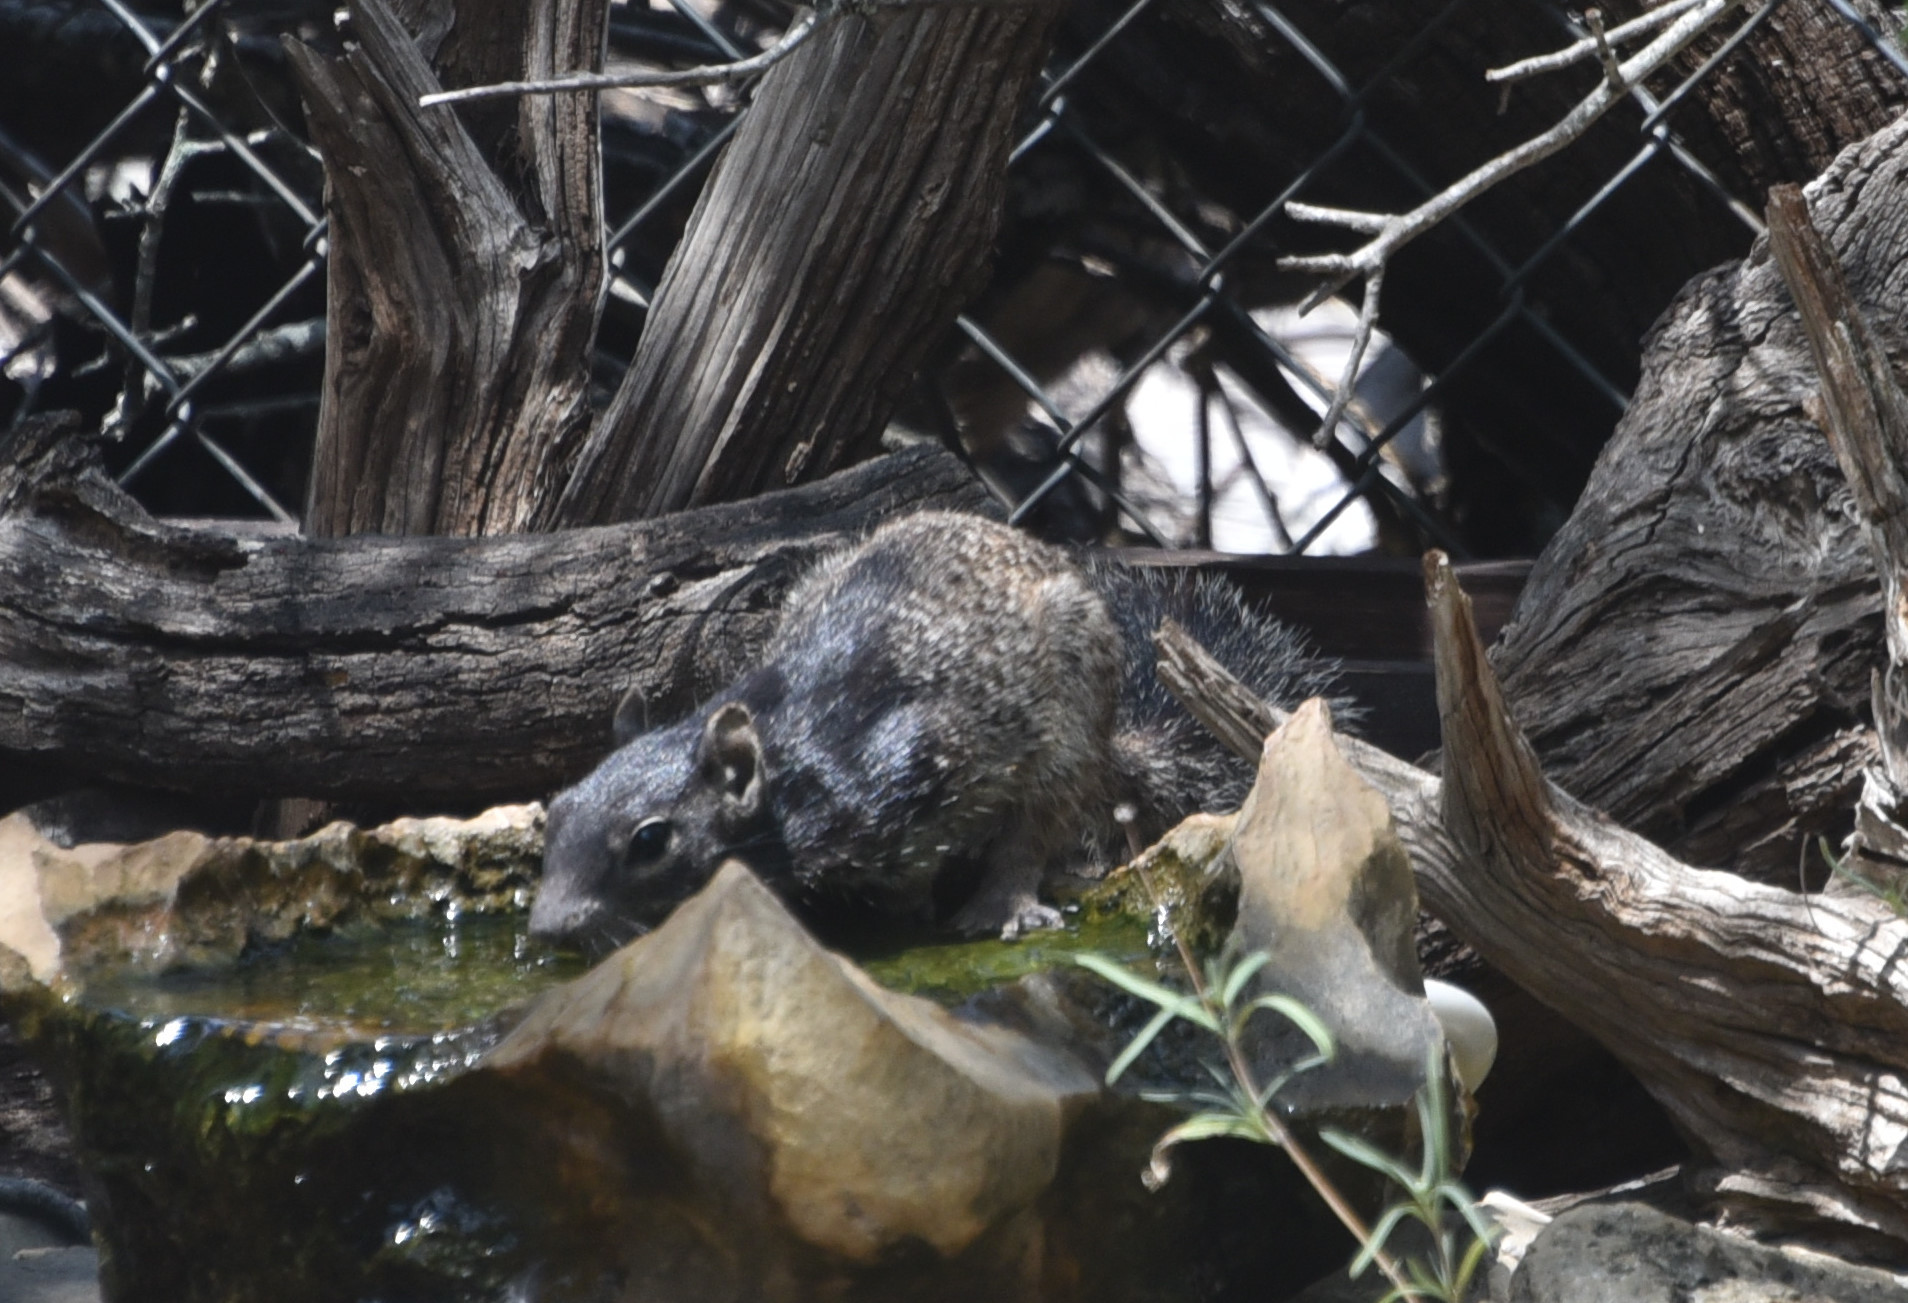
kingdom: Animalia
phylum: Chordata
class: Mammalia
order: Rodentia
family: Sciuridae
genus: Otospermophilus
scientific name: Otospermophilus variegatus
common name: Rock squirrel
